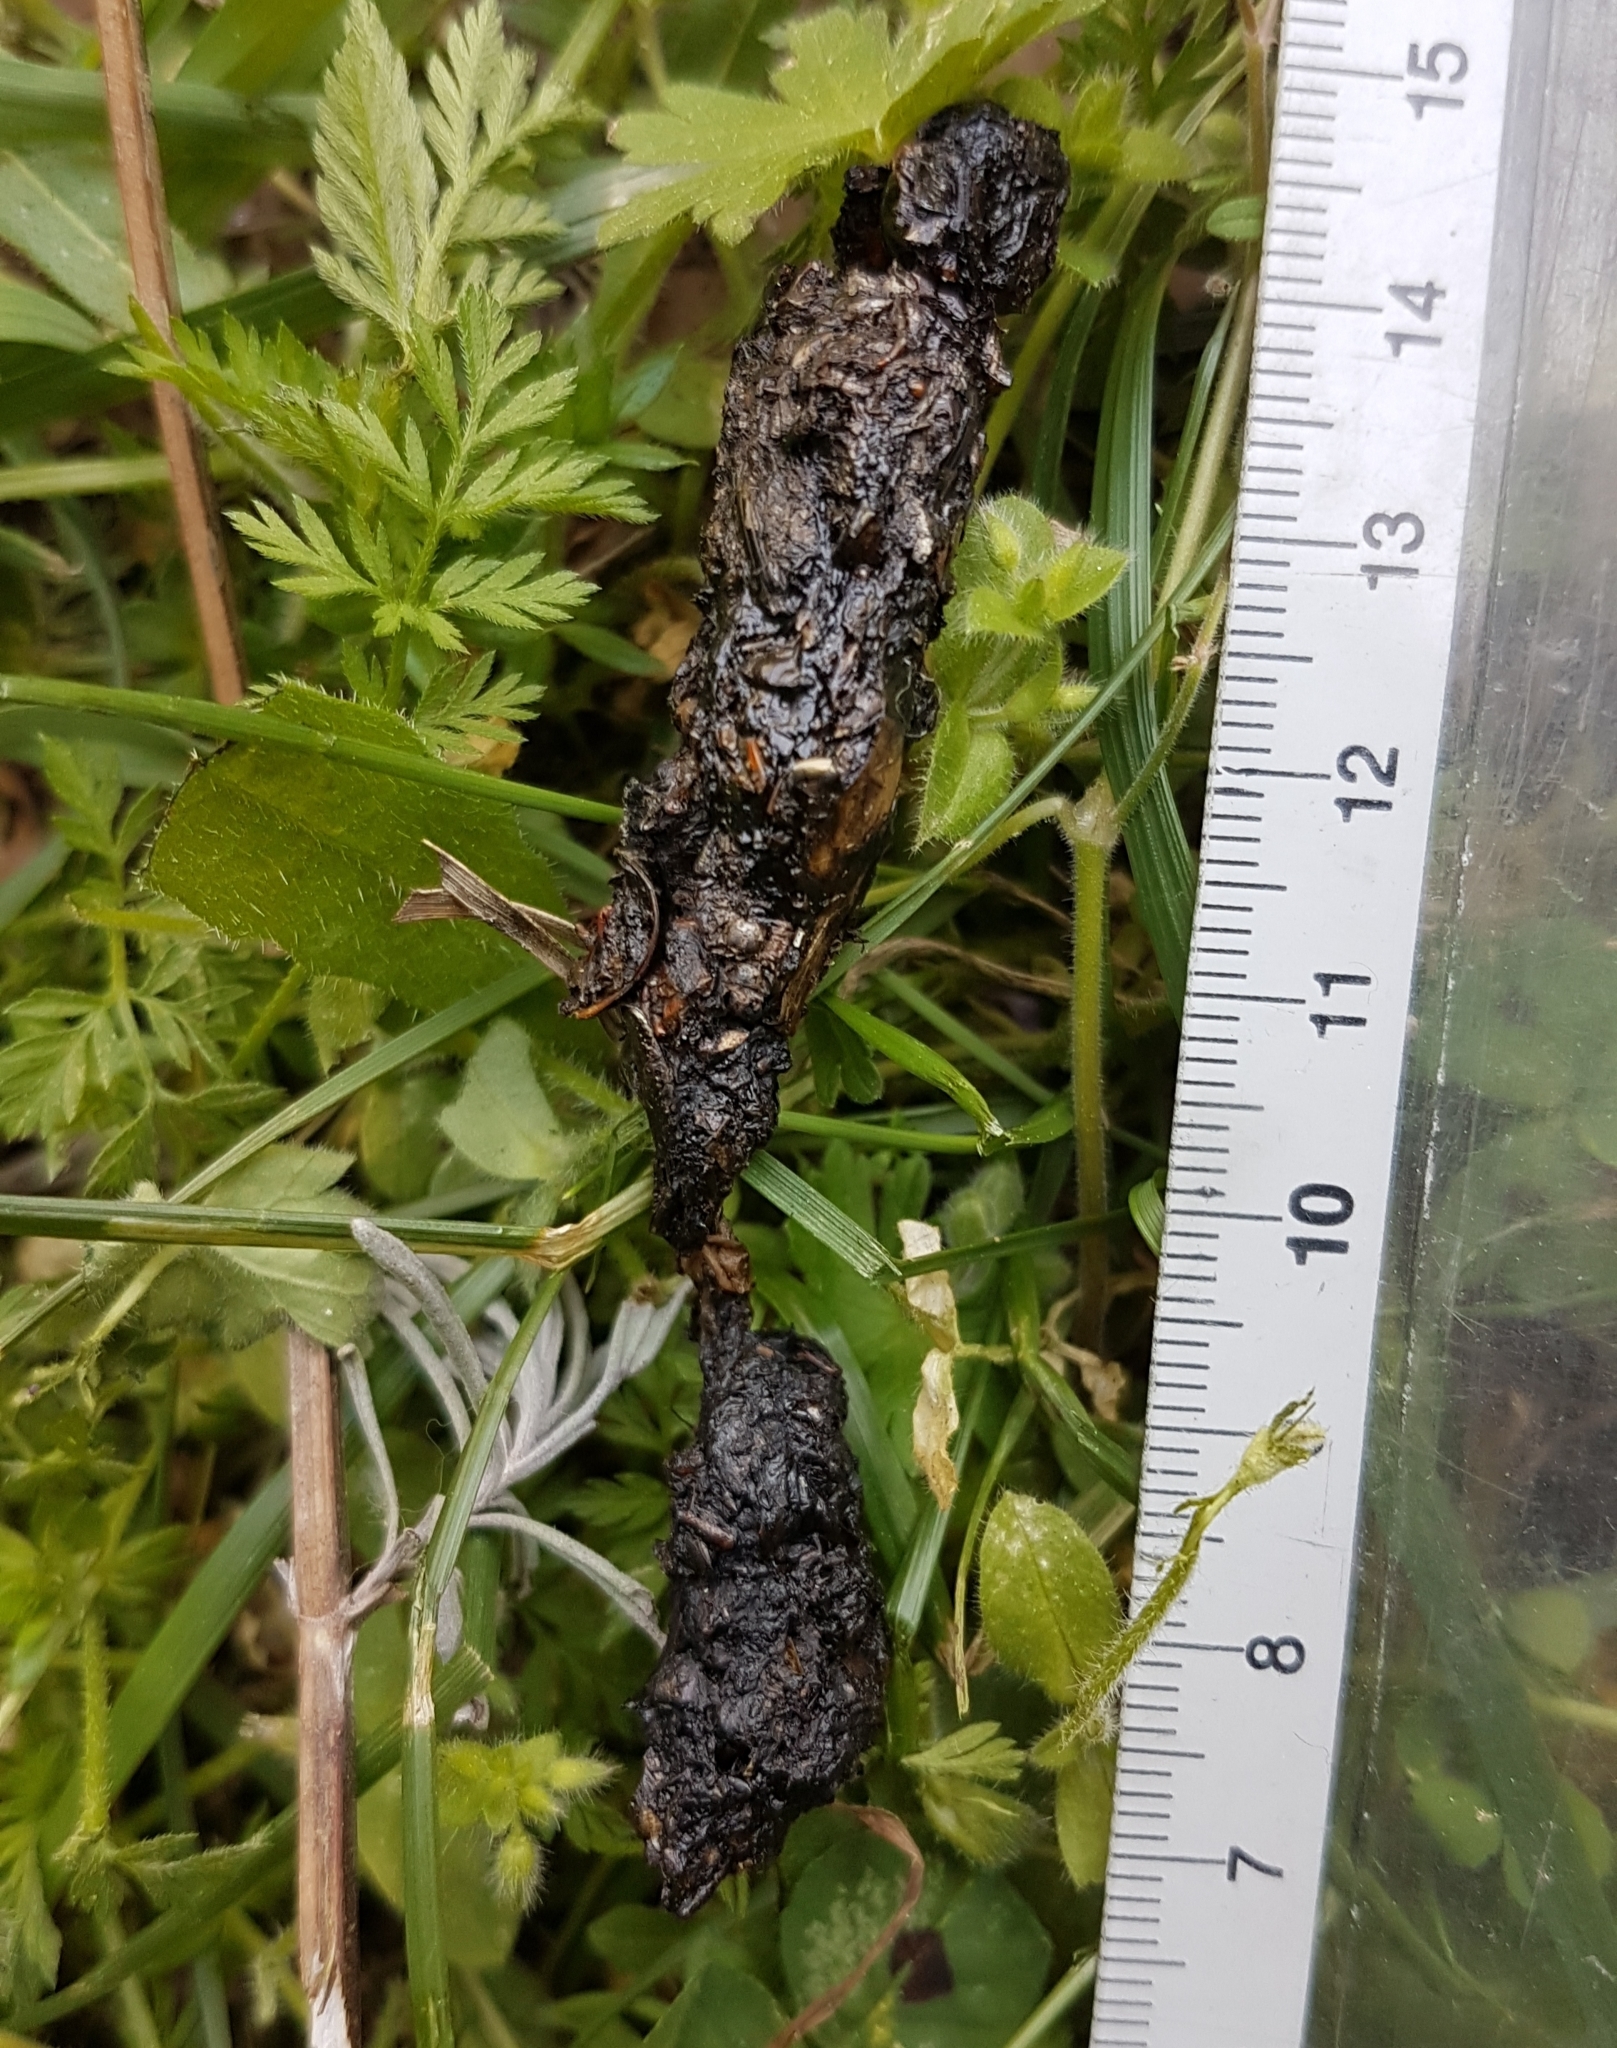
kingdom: Animalia
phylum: Chordata
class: Mammalia
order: Erinaceomorpha
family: Erinaceidae
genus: Erinaceus
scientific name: Erinaceus europaeus
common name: West european hedgehog
